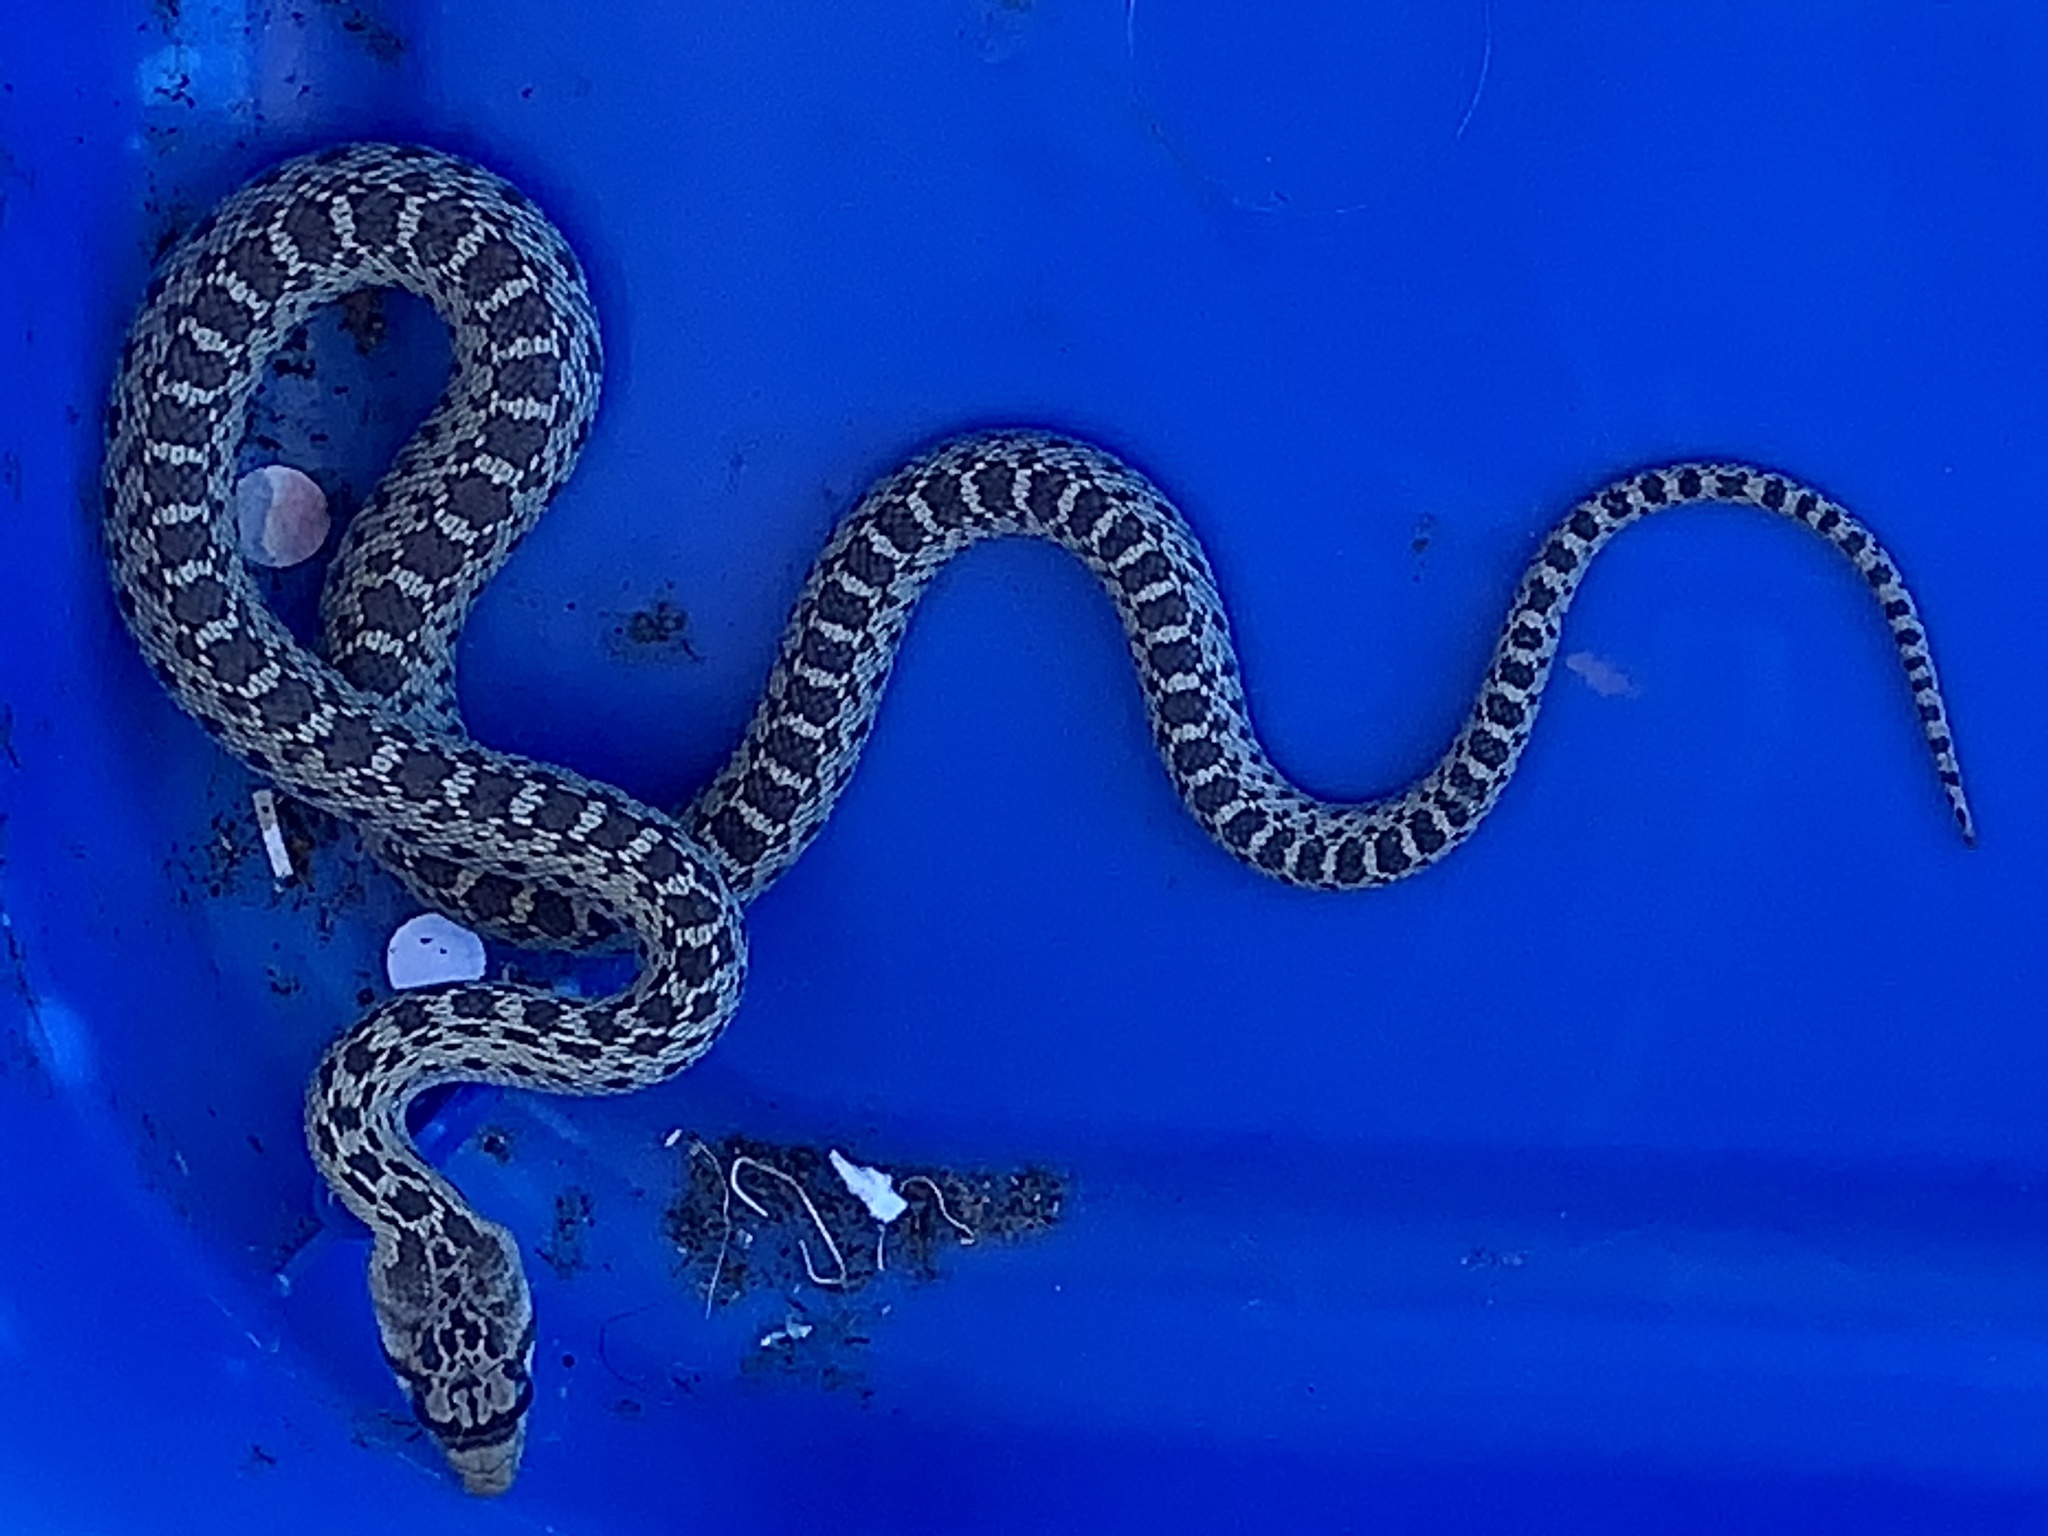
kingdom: Animalia
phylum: Chordata
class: Squamata
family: Colubridae
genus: Pituophis
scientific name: Pituophis catenifer
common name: Gopher snake
